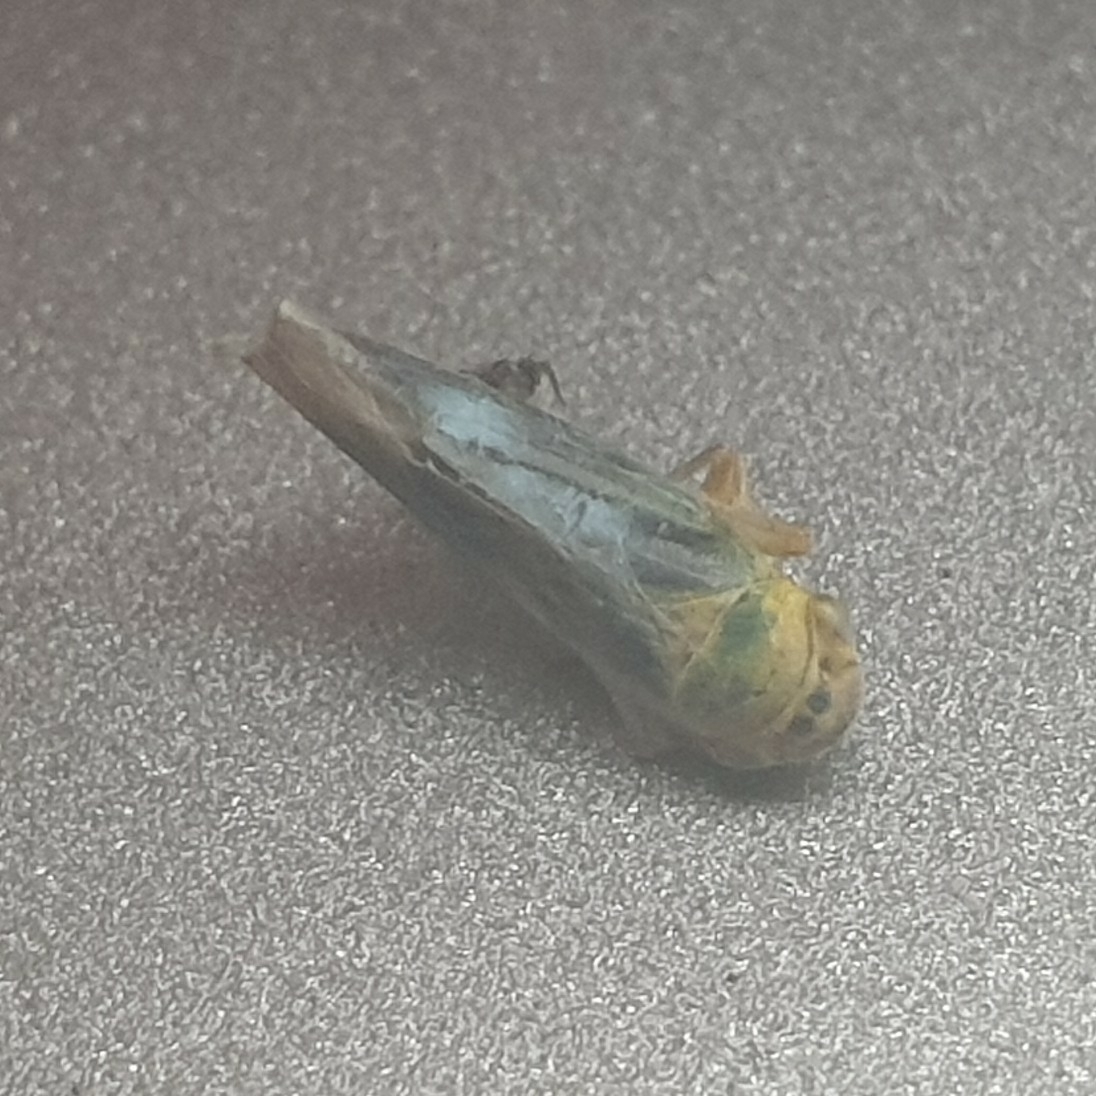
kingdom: Animalia
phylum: Arthropoda
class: Insecta
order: Hemiptera
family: Cicadellidae
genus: Cicadella
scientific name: Cicadella viridis
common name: Leafhopper
